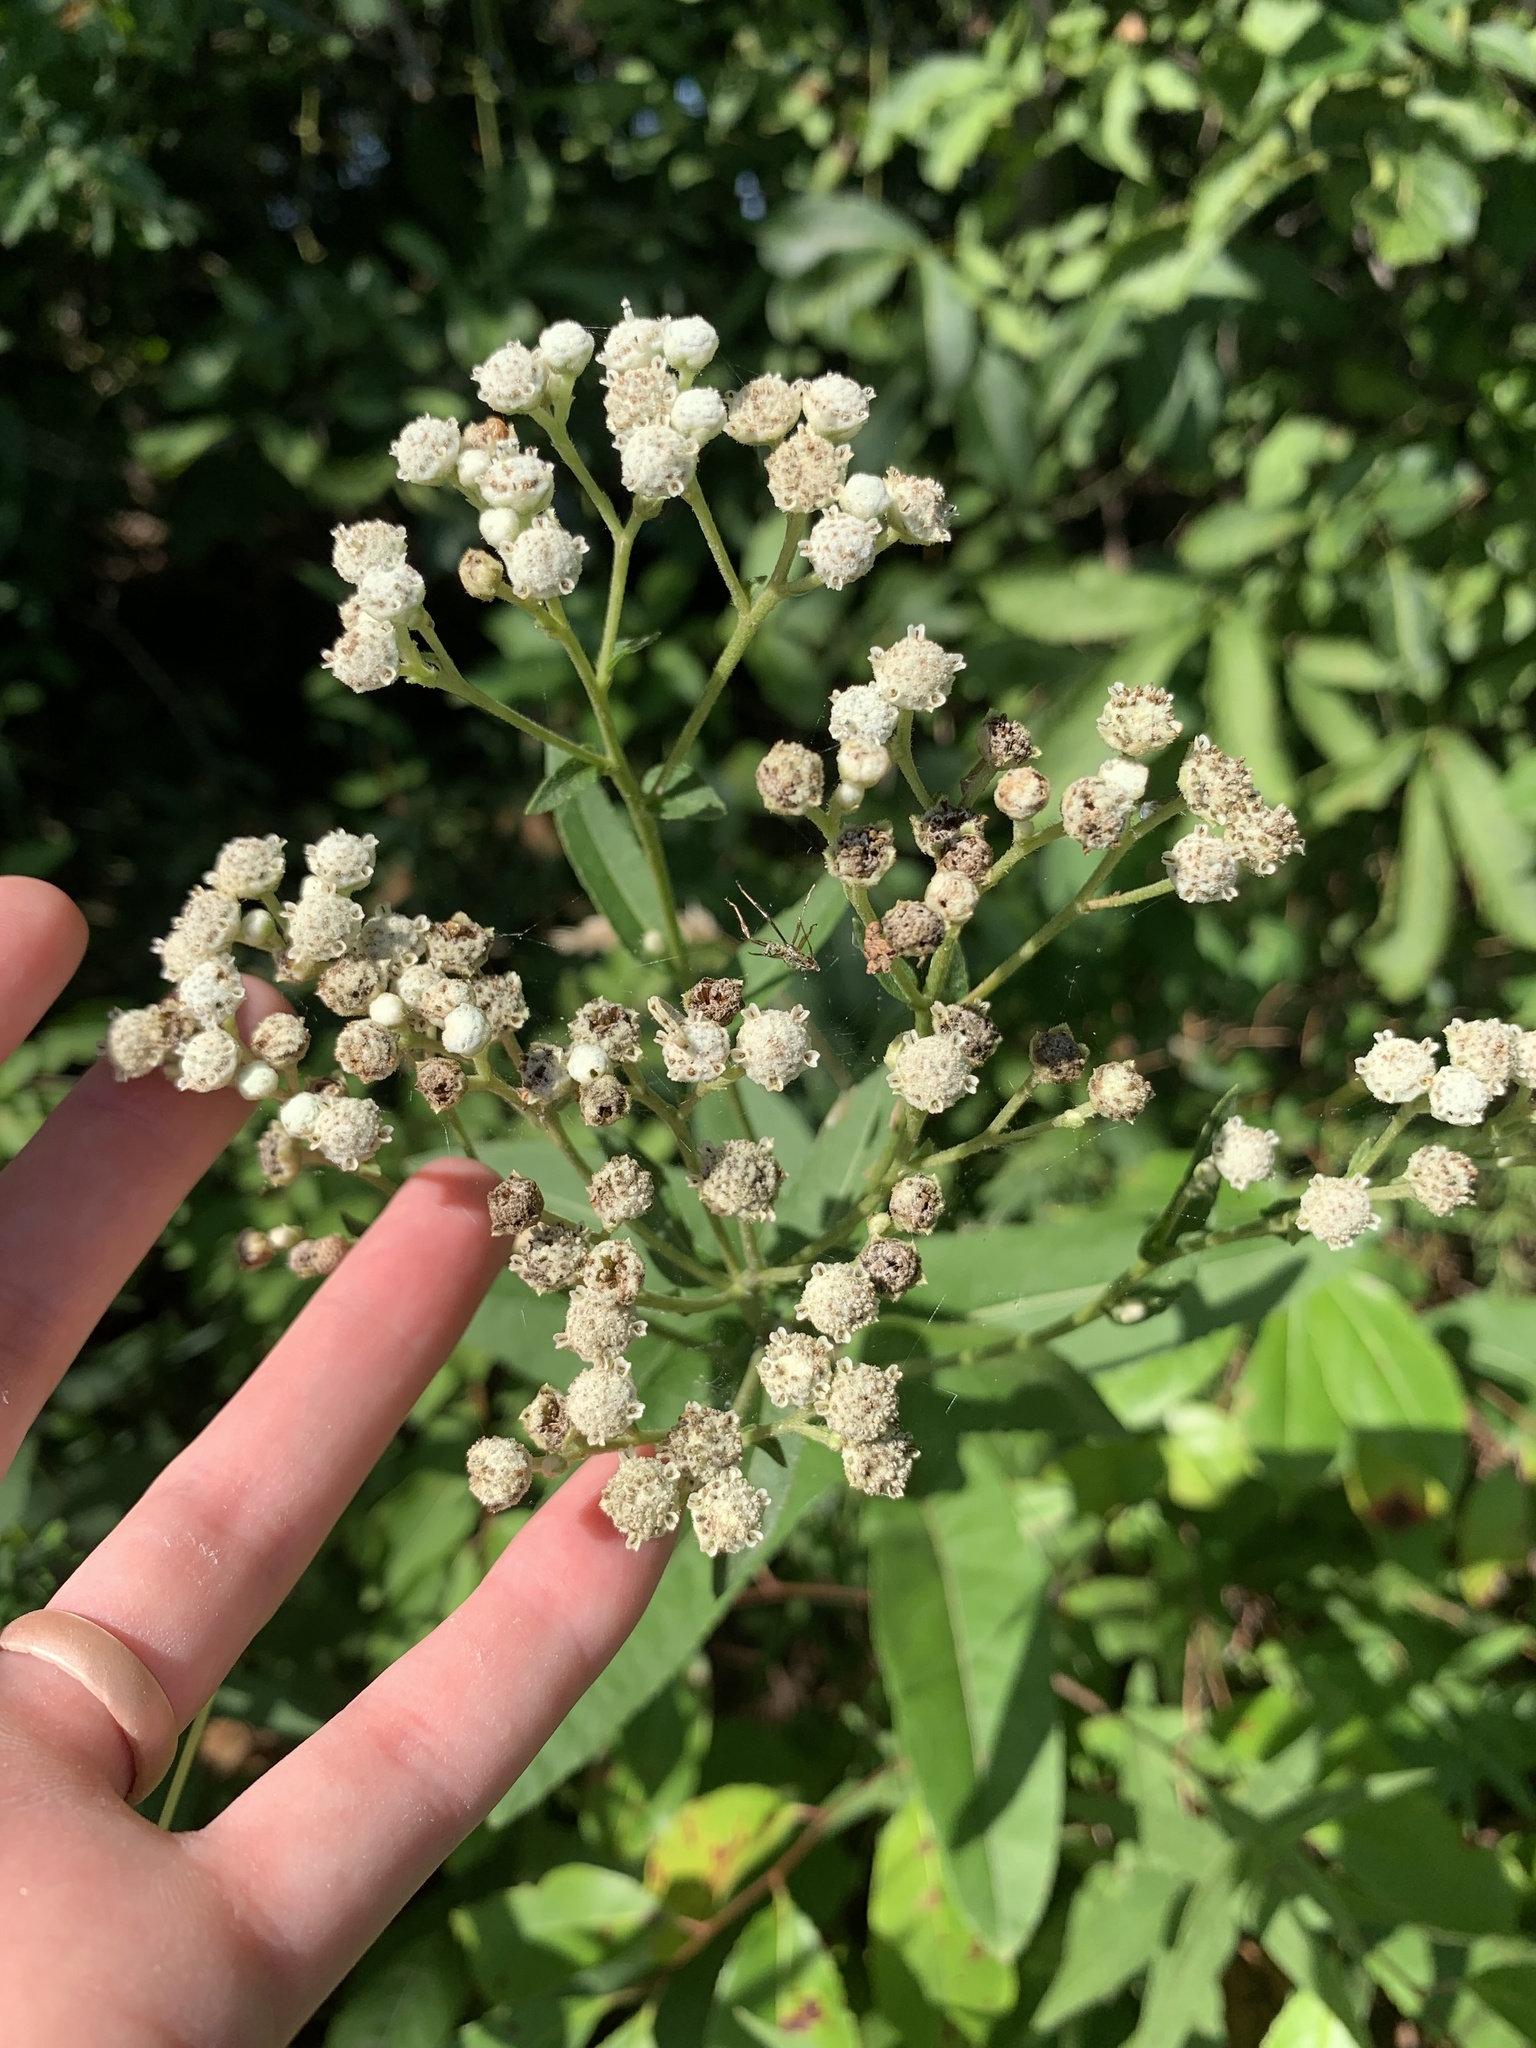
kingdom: Plantae
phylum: Tracheophyta
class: Magnoliopsida
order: Asterales
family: Asteraceae
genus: Parthenium
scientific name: Parthenium integrifolium
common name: American feverfew
